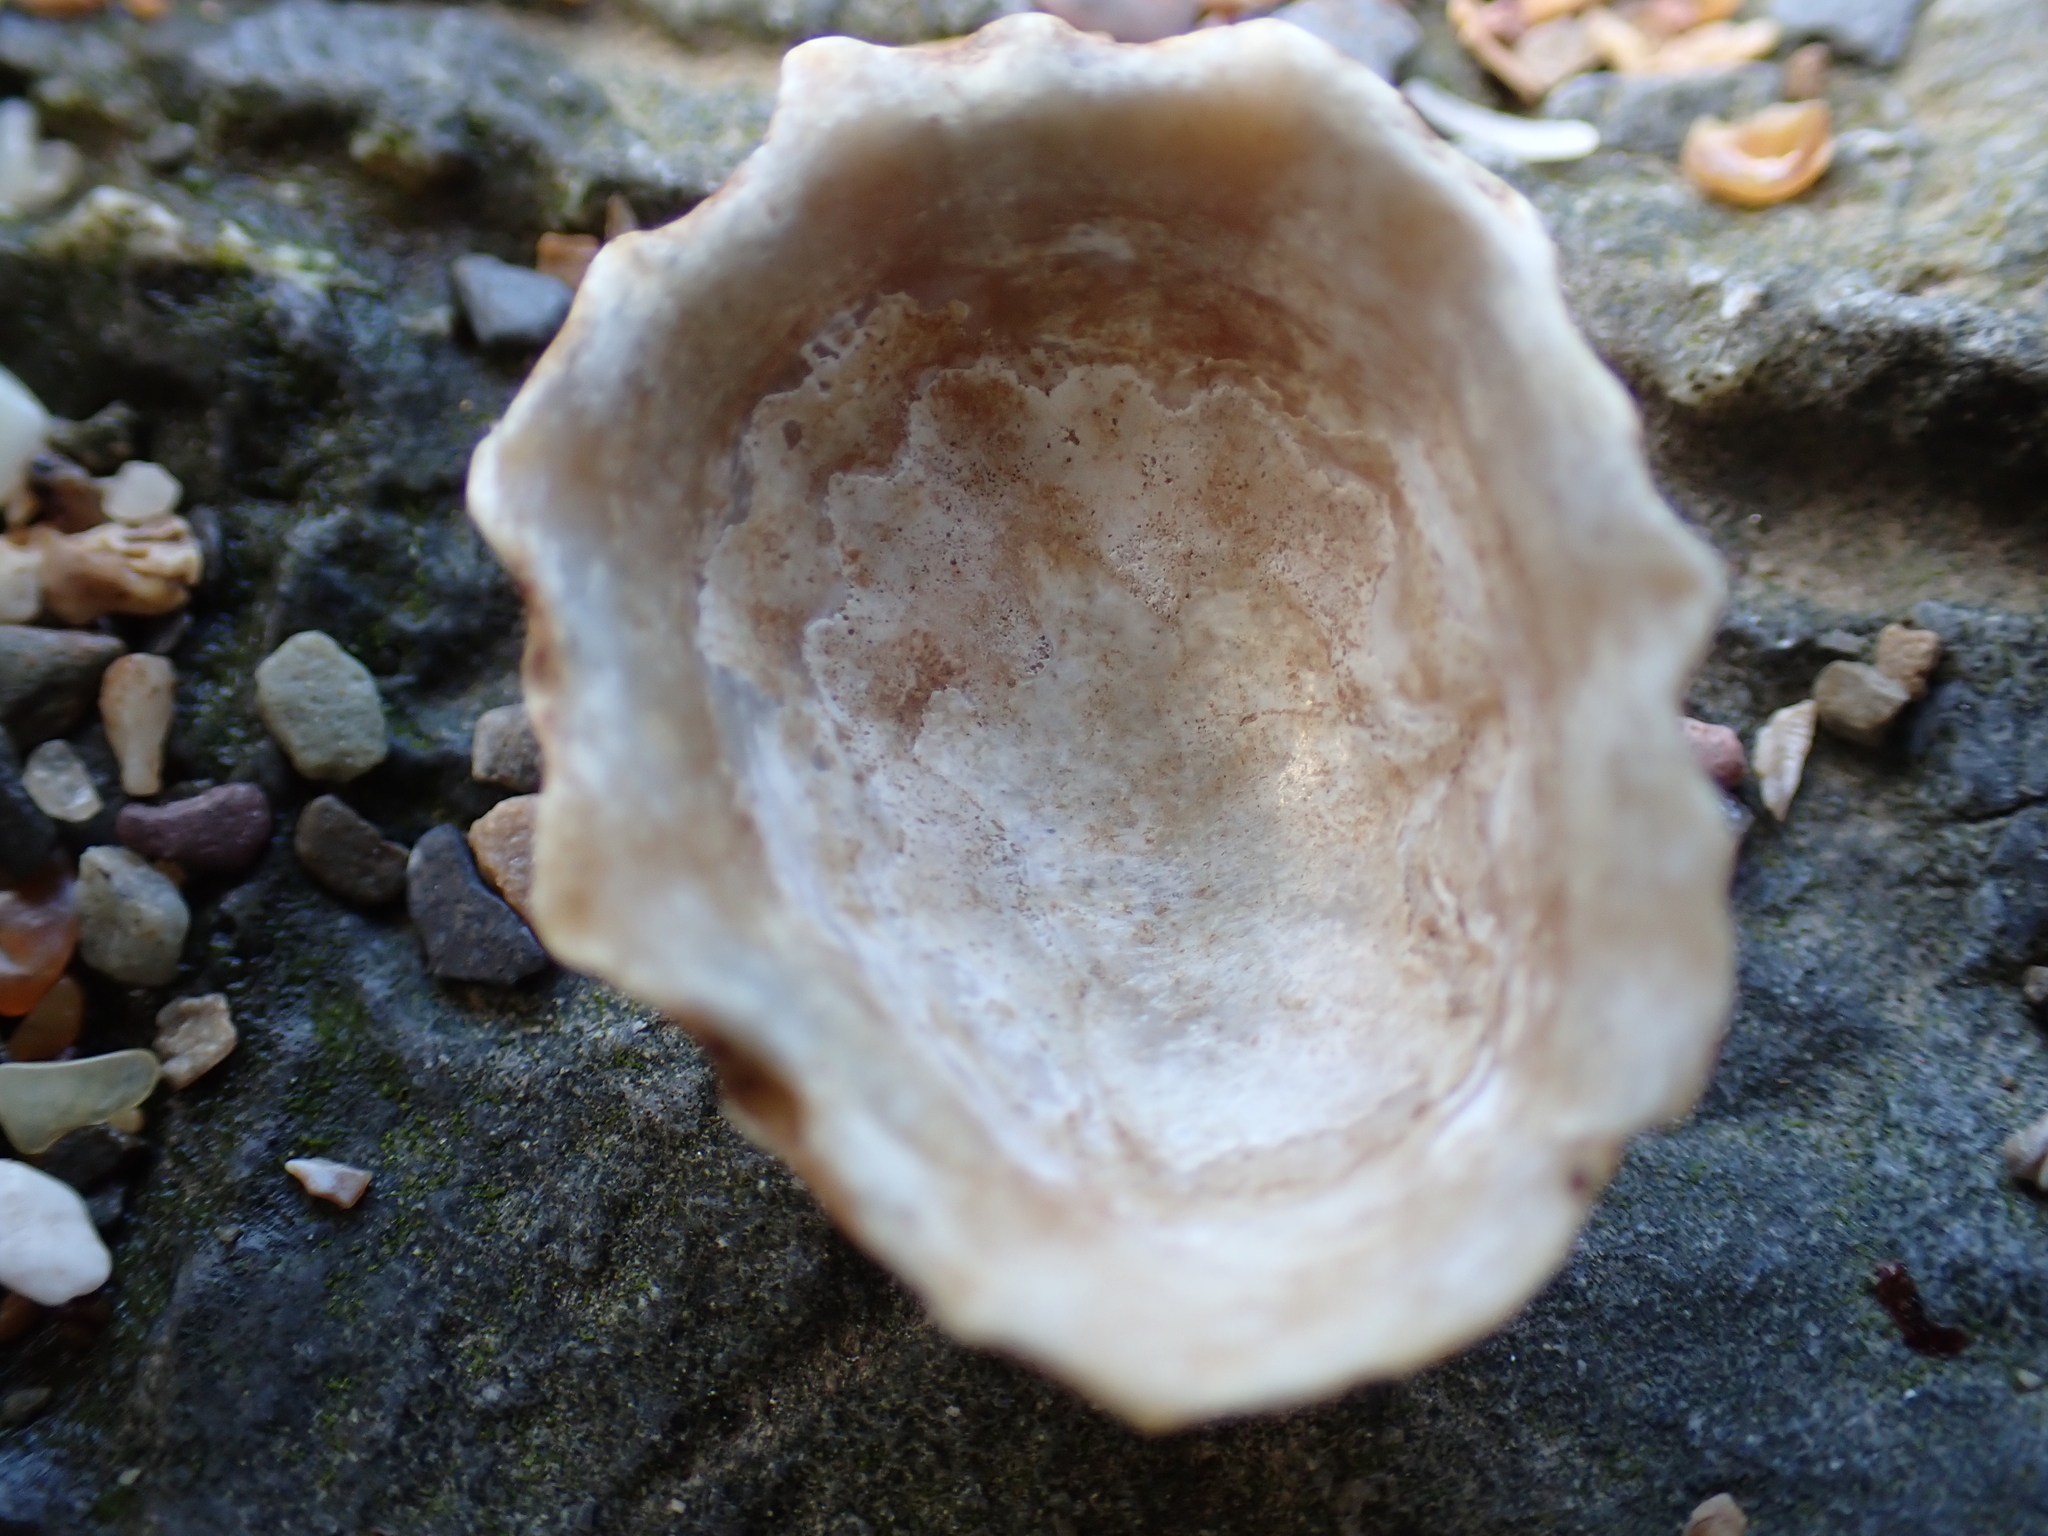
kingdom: Animalia
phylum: Mollusca
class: Gastropoda
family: Patellidae
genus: Patella
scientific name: Patella
